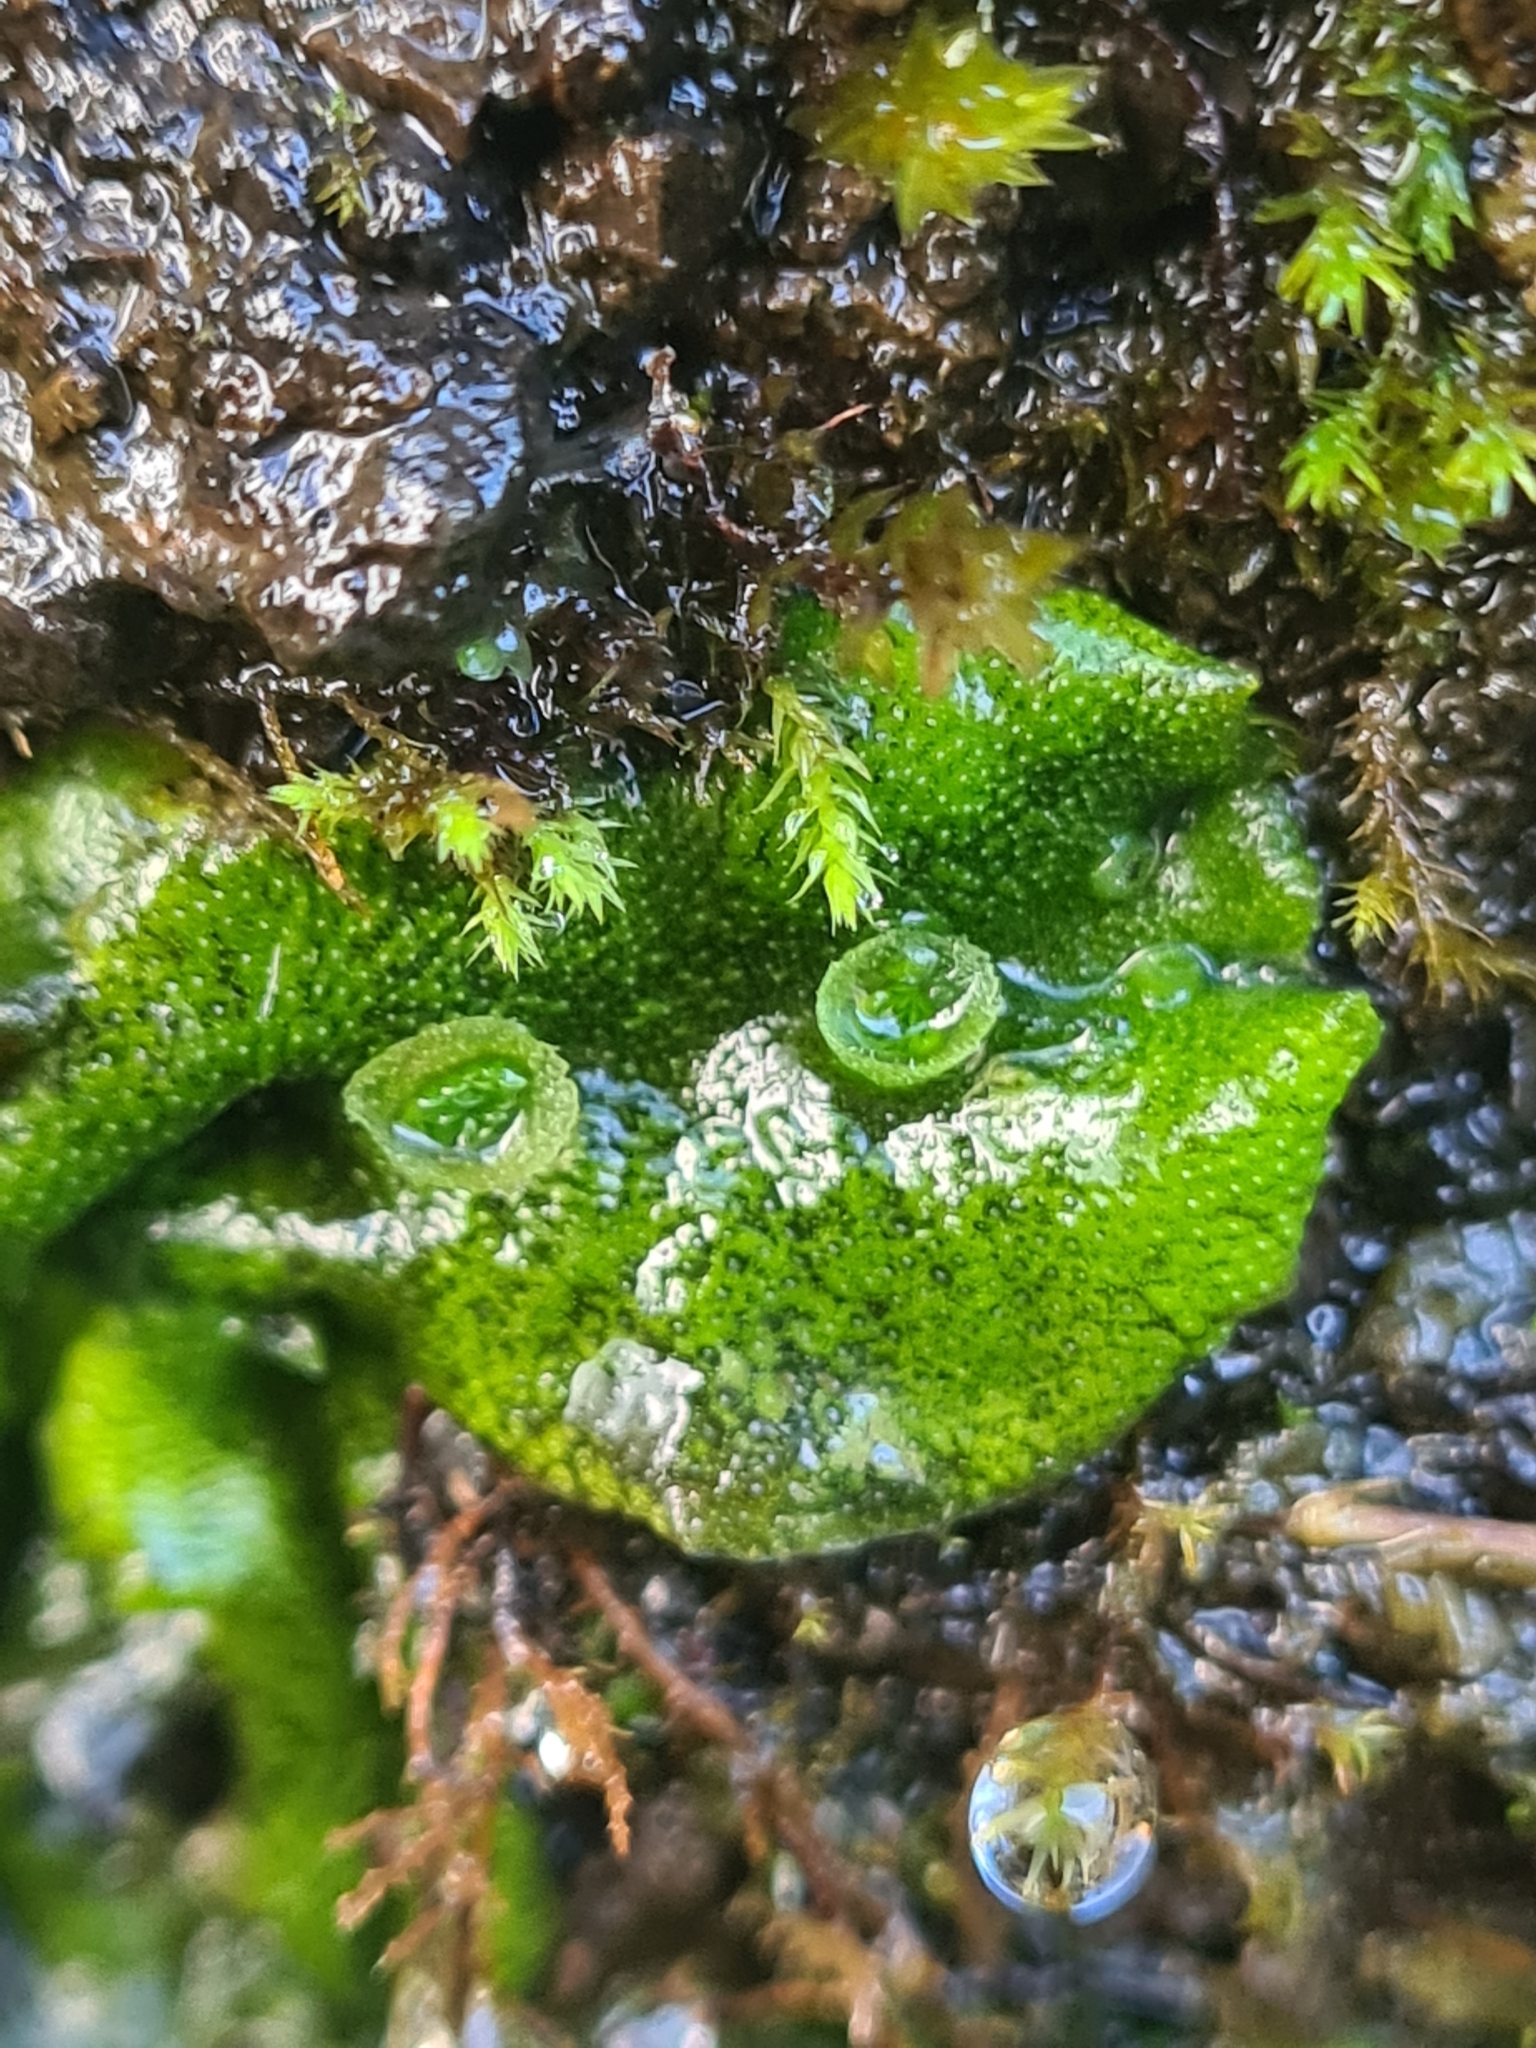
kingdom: Plantae
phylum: Marchantiophyta
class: Marchantiopsida
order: Marchantiales
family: Marchantiaceae
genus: Marchantia
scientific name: Marchantia polymorpha
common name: Common liverwort
